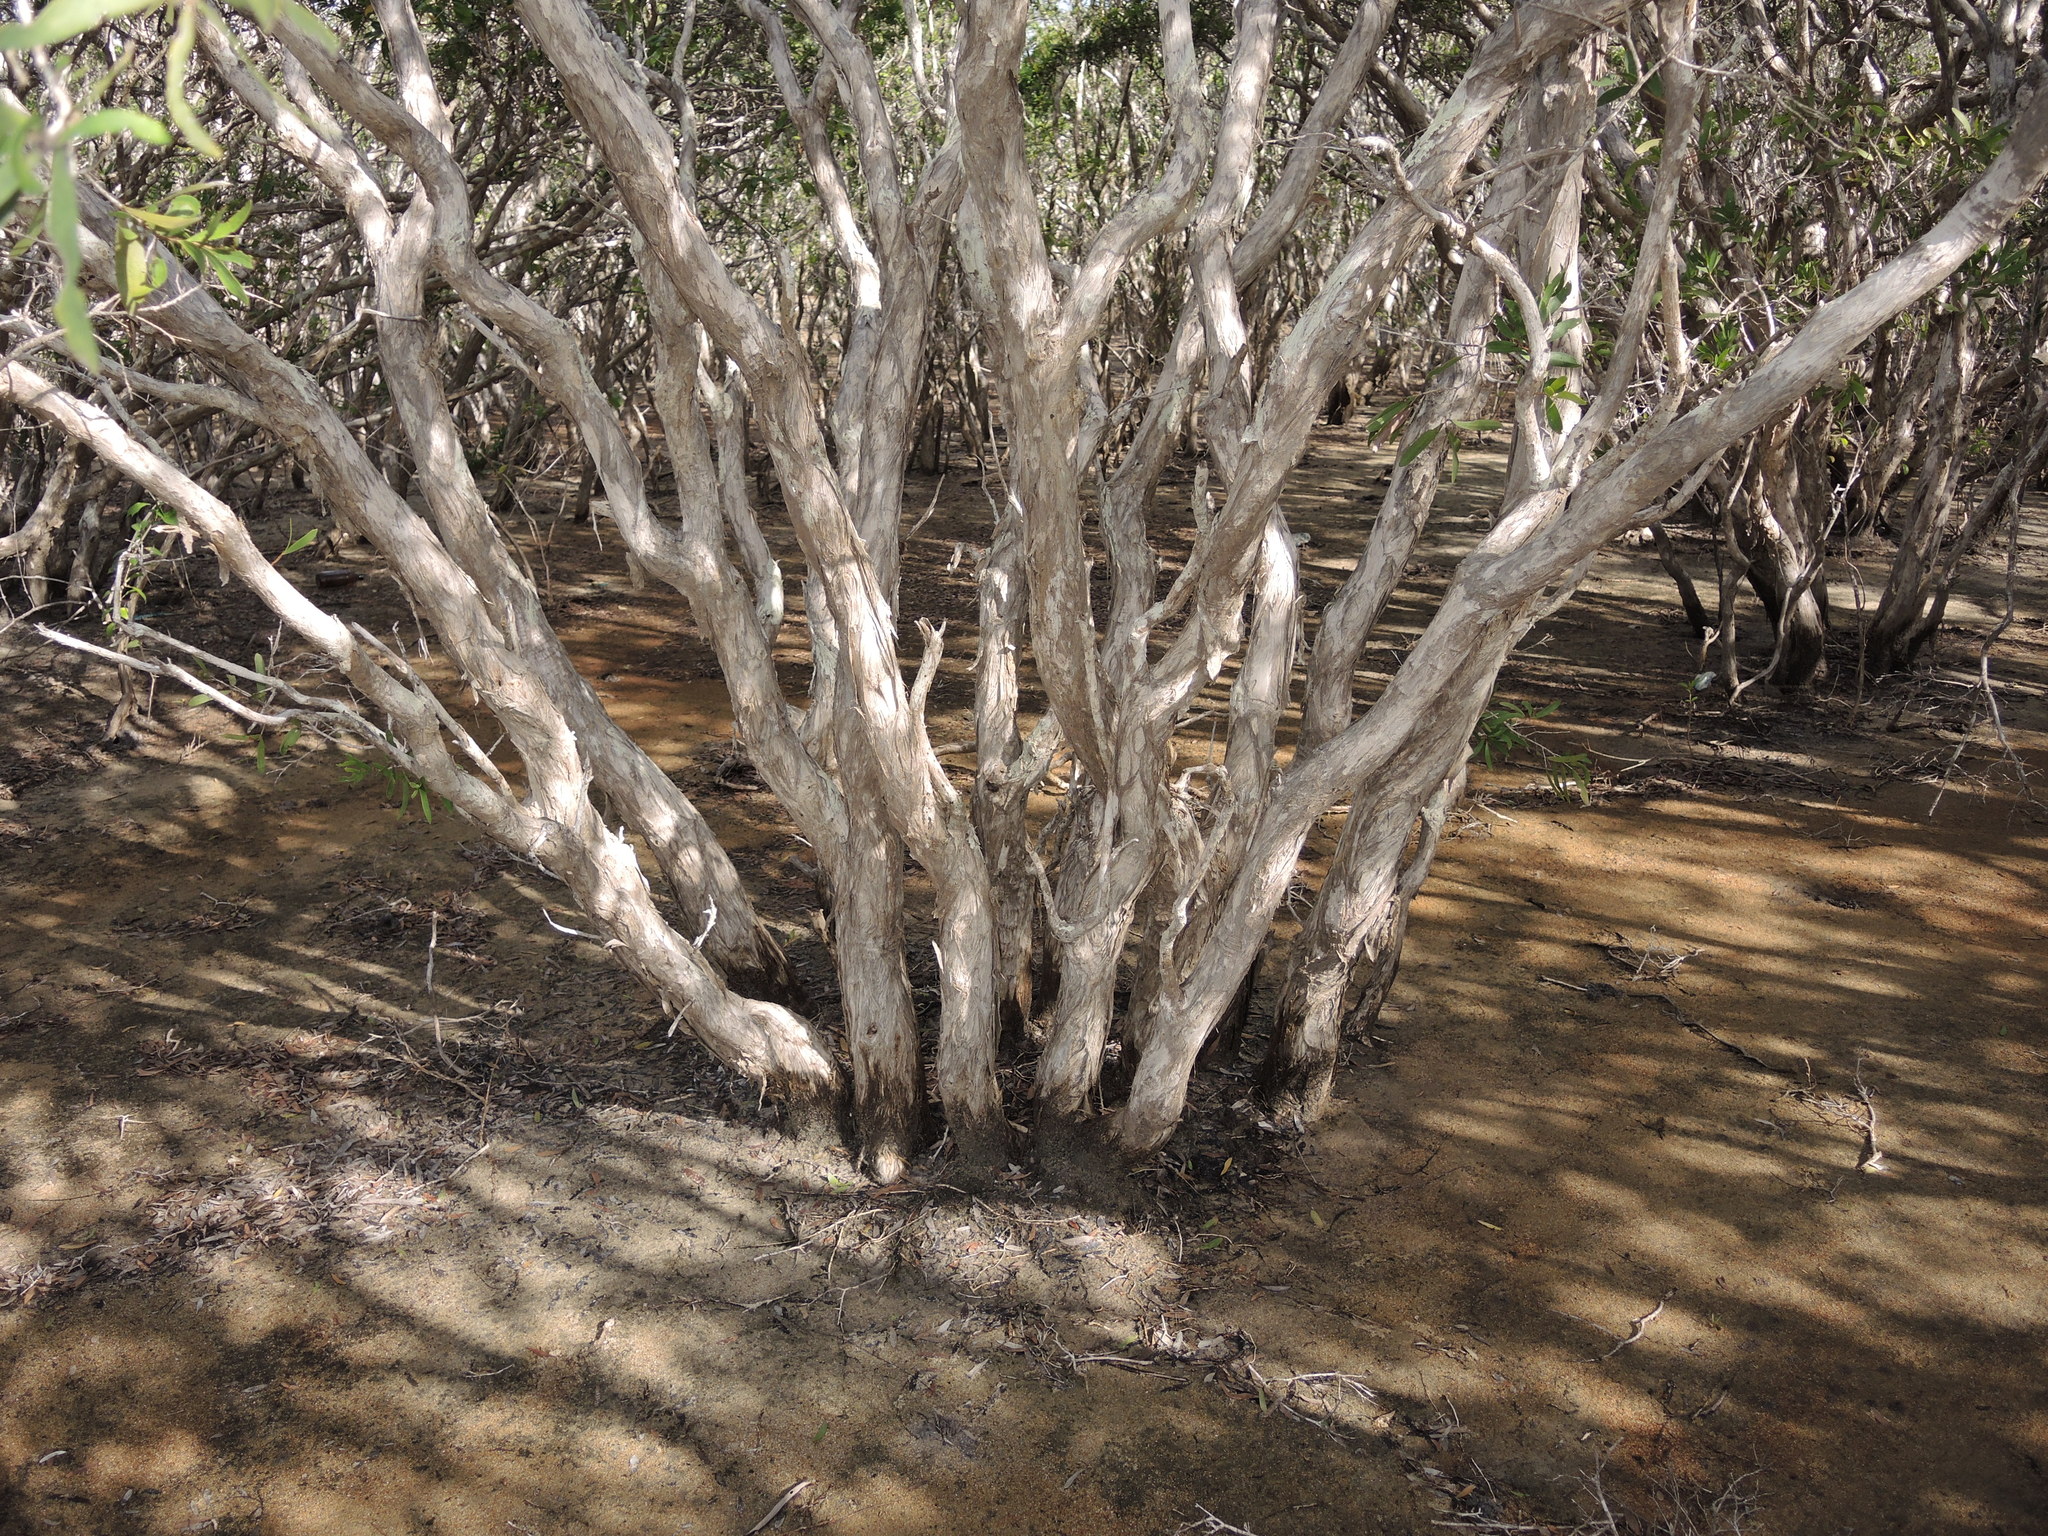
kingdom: Plantae
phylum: Tracheophyta
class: Magnoliopsida
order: Myrtales
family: Myrtaceae
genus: Melaleuca
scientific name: Melaleuca acacioides
